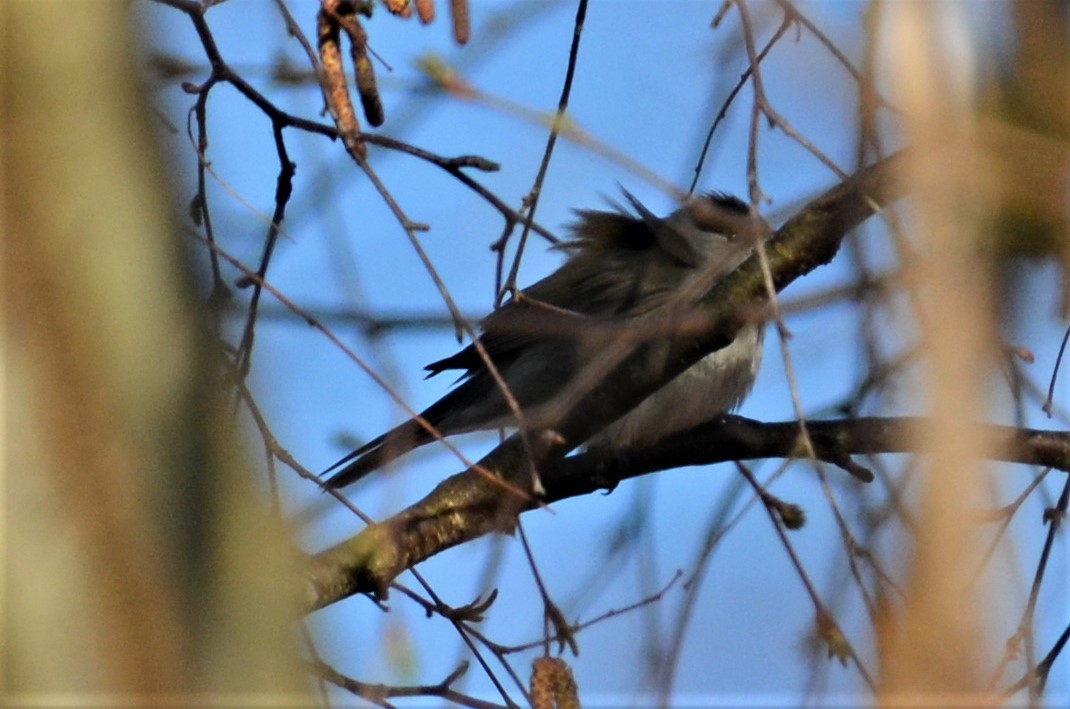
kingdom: Animalia
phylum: Chordata
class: Aves
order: Passeriformes
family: Sylviidae
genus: Sylvia
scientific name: Sylvia atricapilla
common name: Eurasian blackcap
